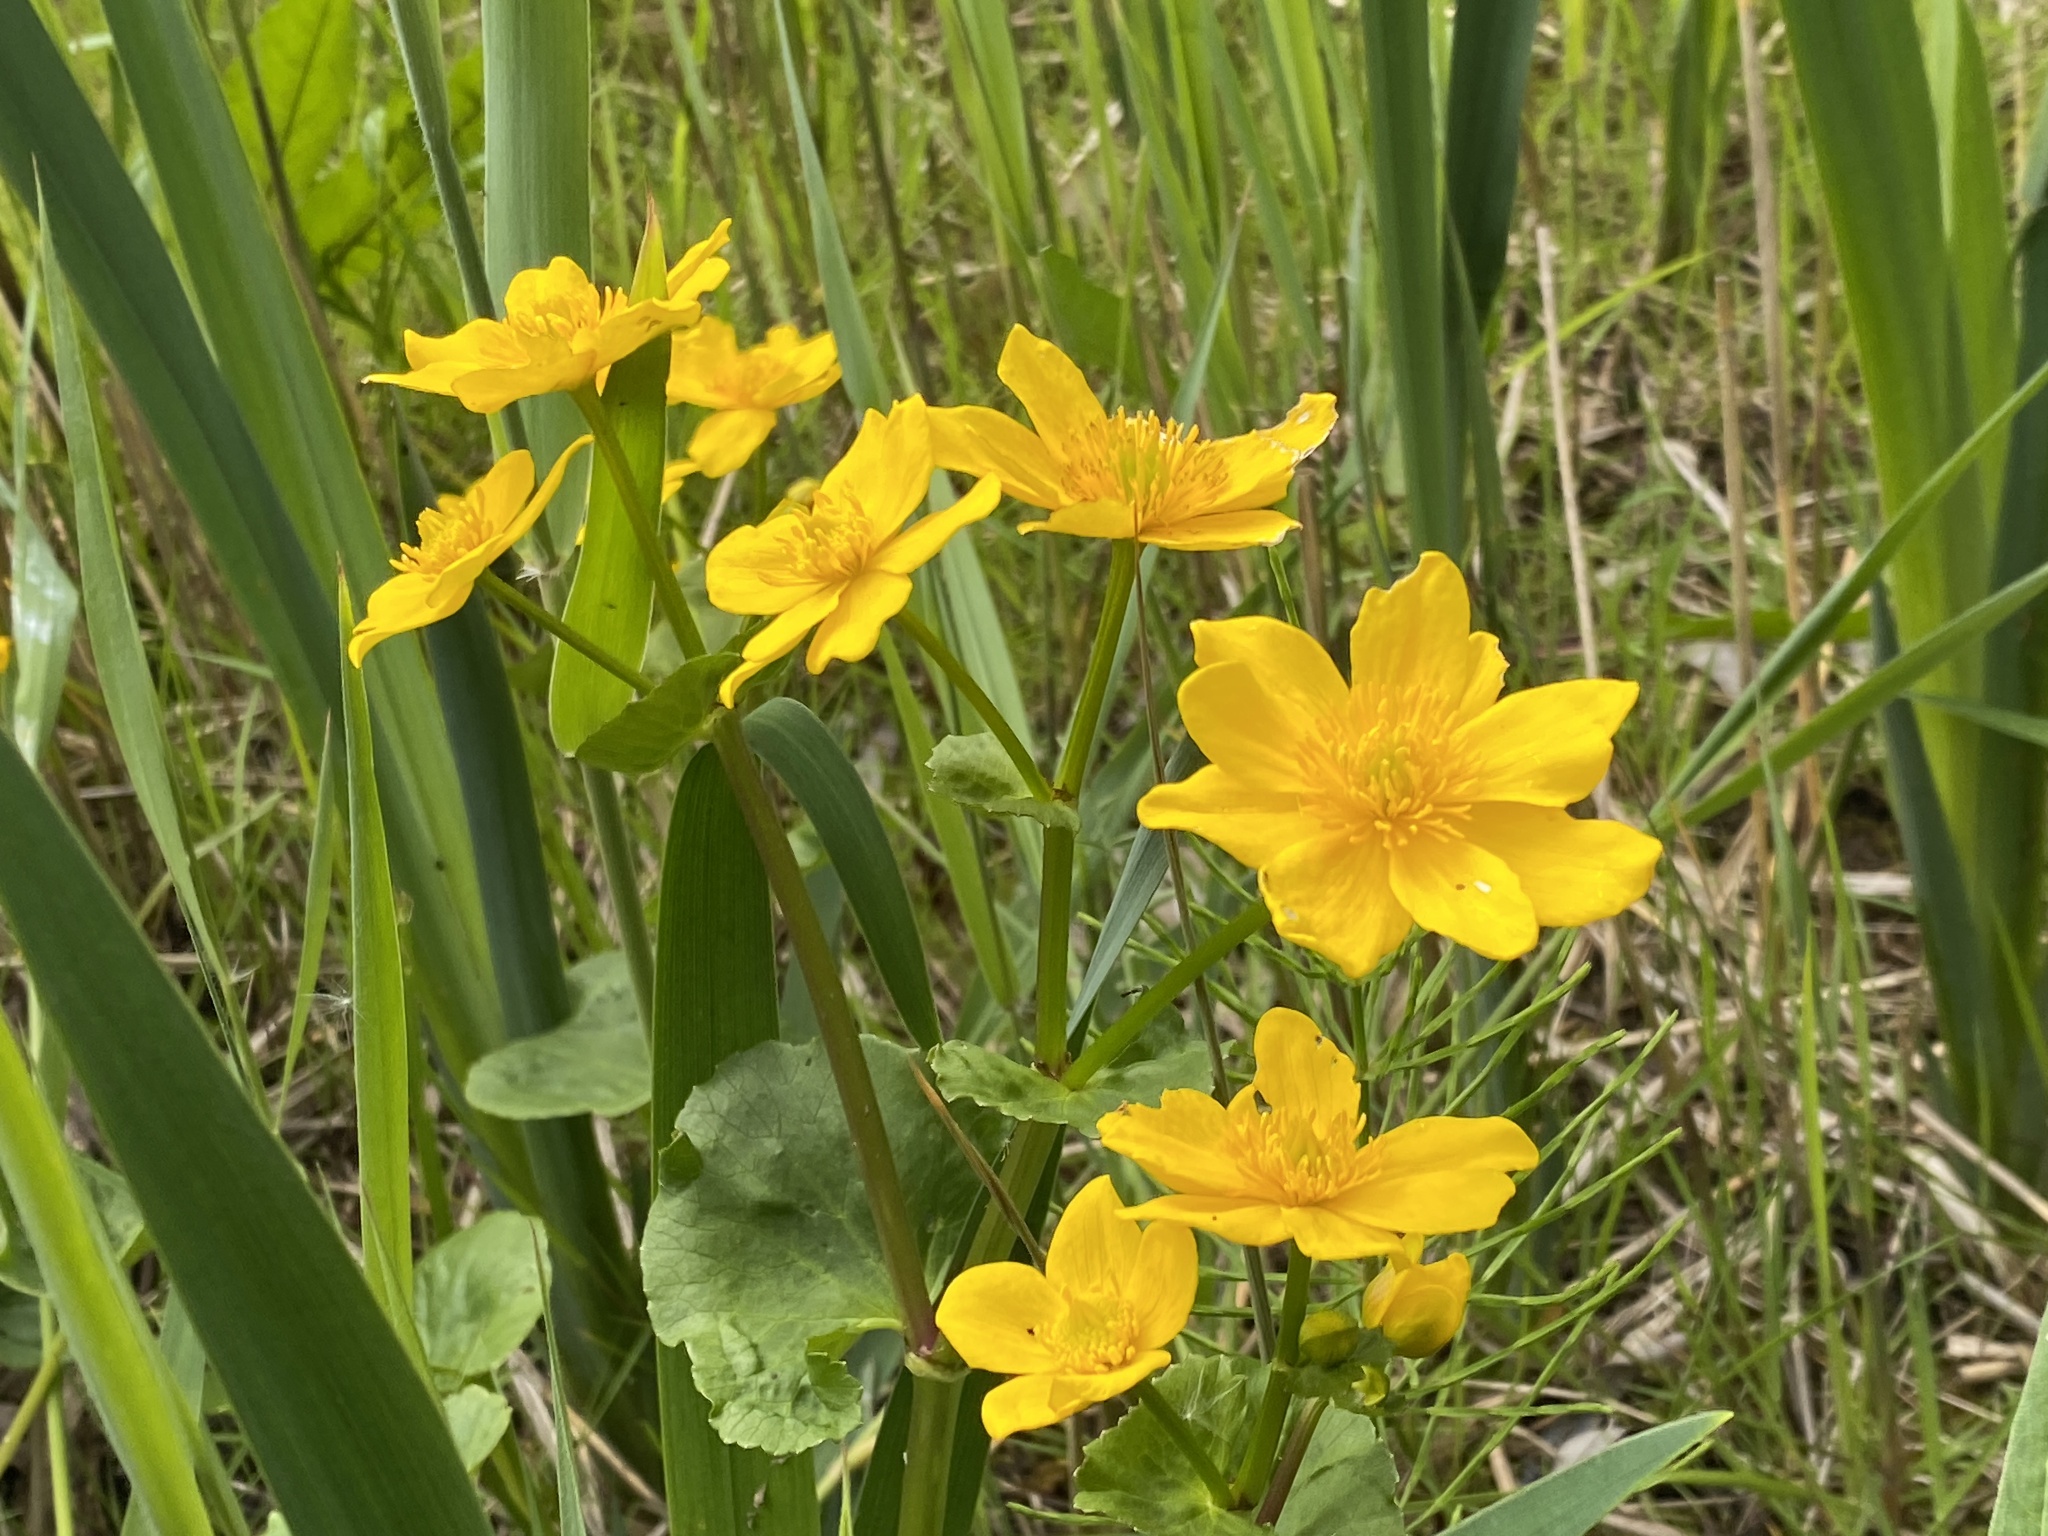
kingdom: Plantae
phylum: Tracheophyta
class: Magnoliopsida
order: Ranunculales
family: Ranunculaceae
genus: Caltha
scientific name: Caltha palustris
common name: Marsh marigold
